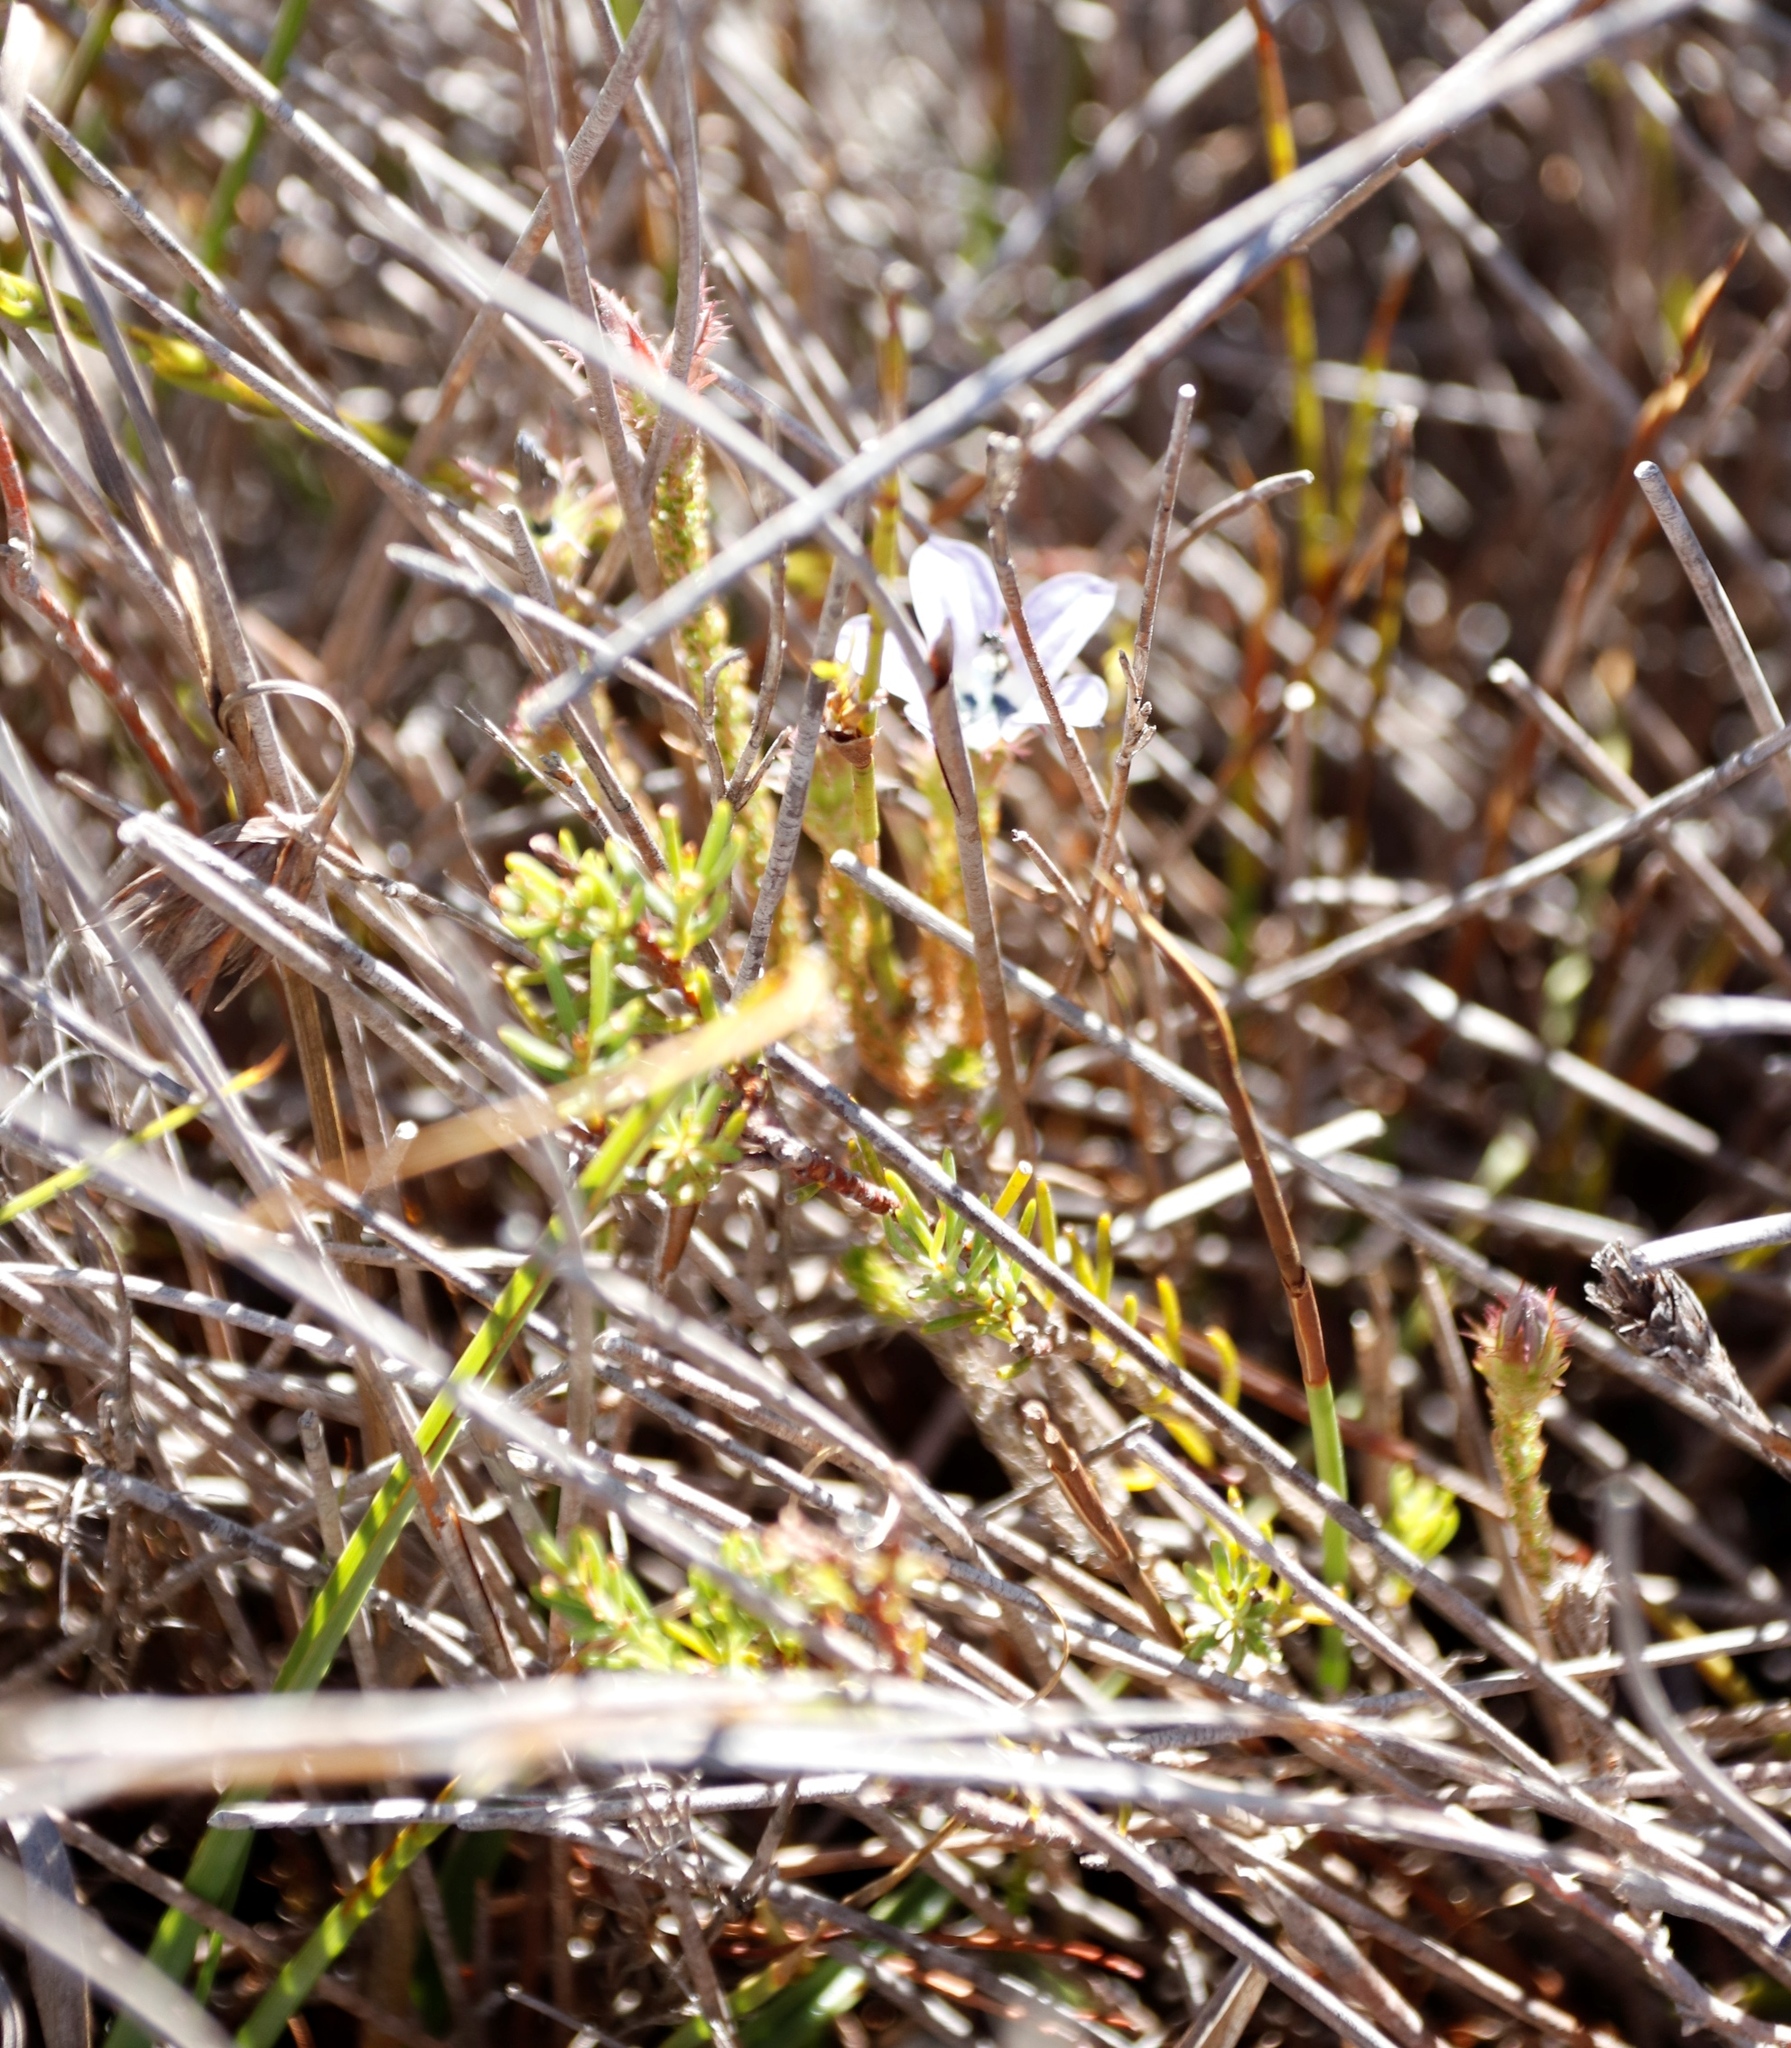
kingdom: Plantae
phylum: Tracheophyta
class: Magnoliopsida
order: Asterales
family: Campanulaceae
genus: Roella
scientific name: Roella triflora
